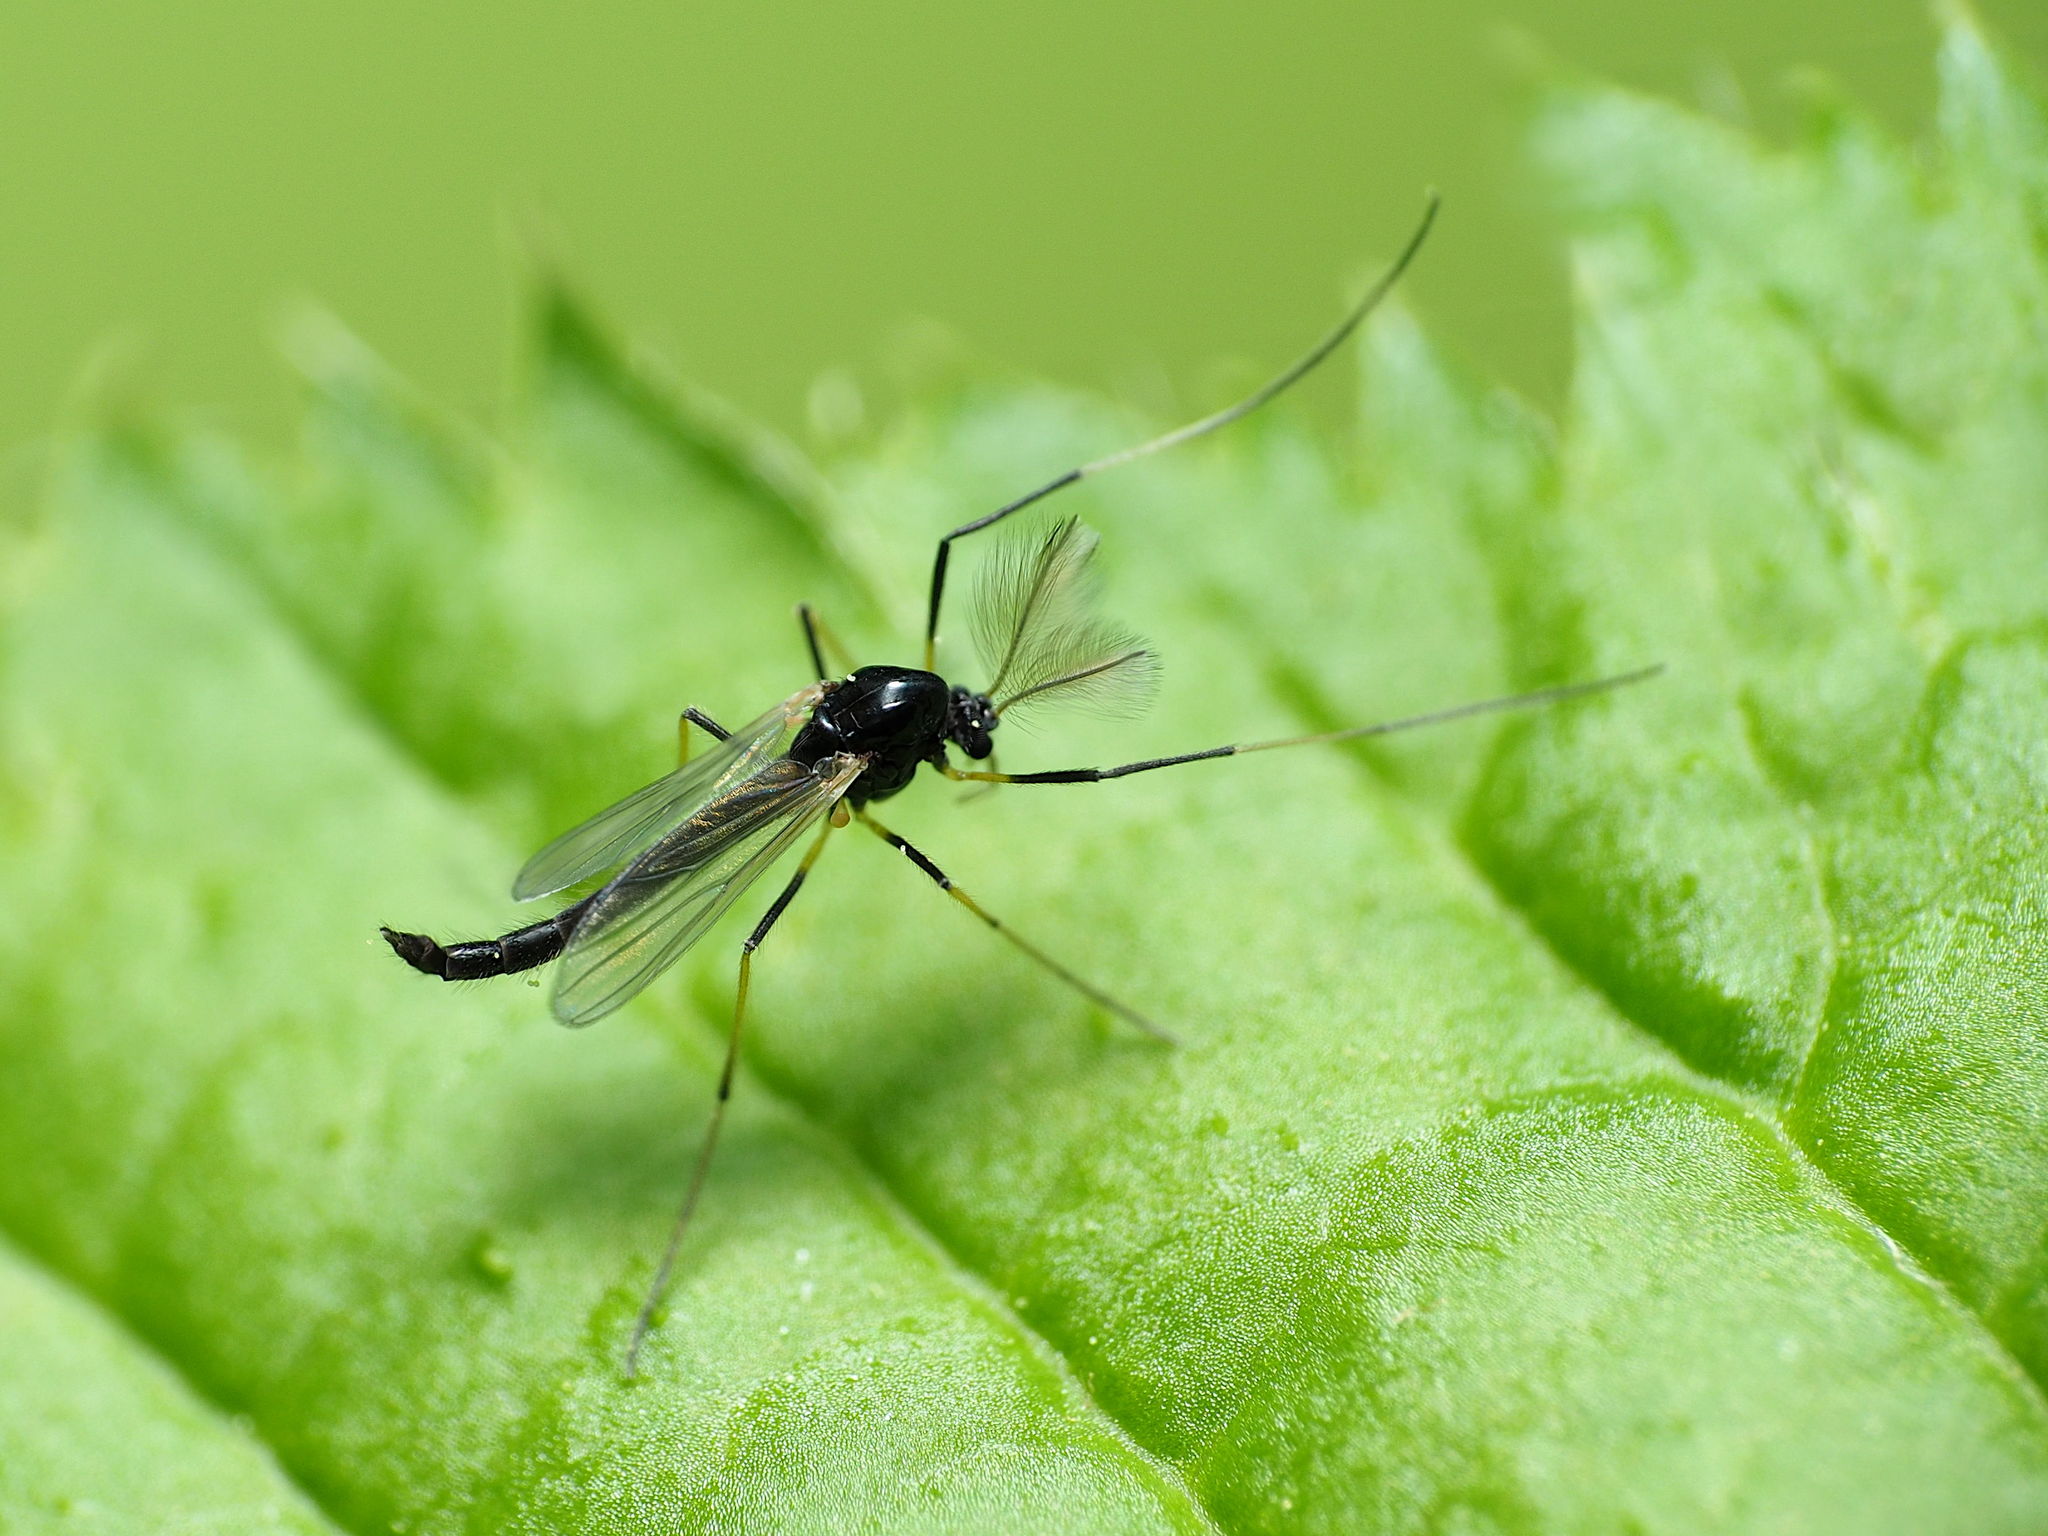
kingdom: Animalia
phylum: Arthropoda
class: Insecta
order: Diptera
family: Chironomidae
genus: Paratendipes
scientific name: Paratendipes albimanus
